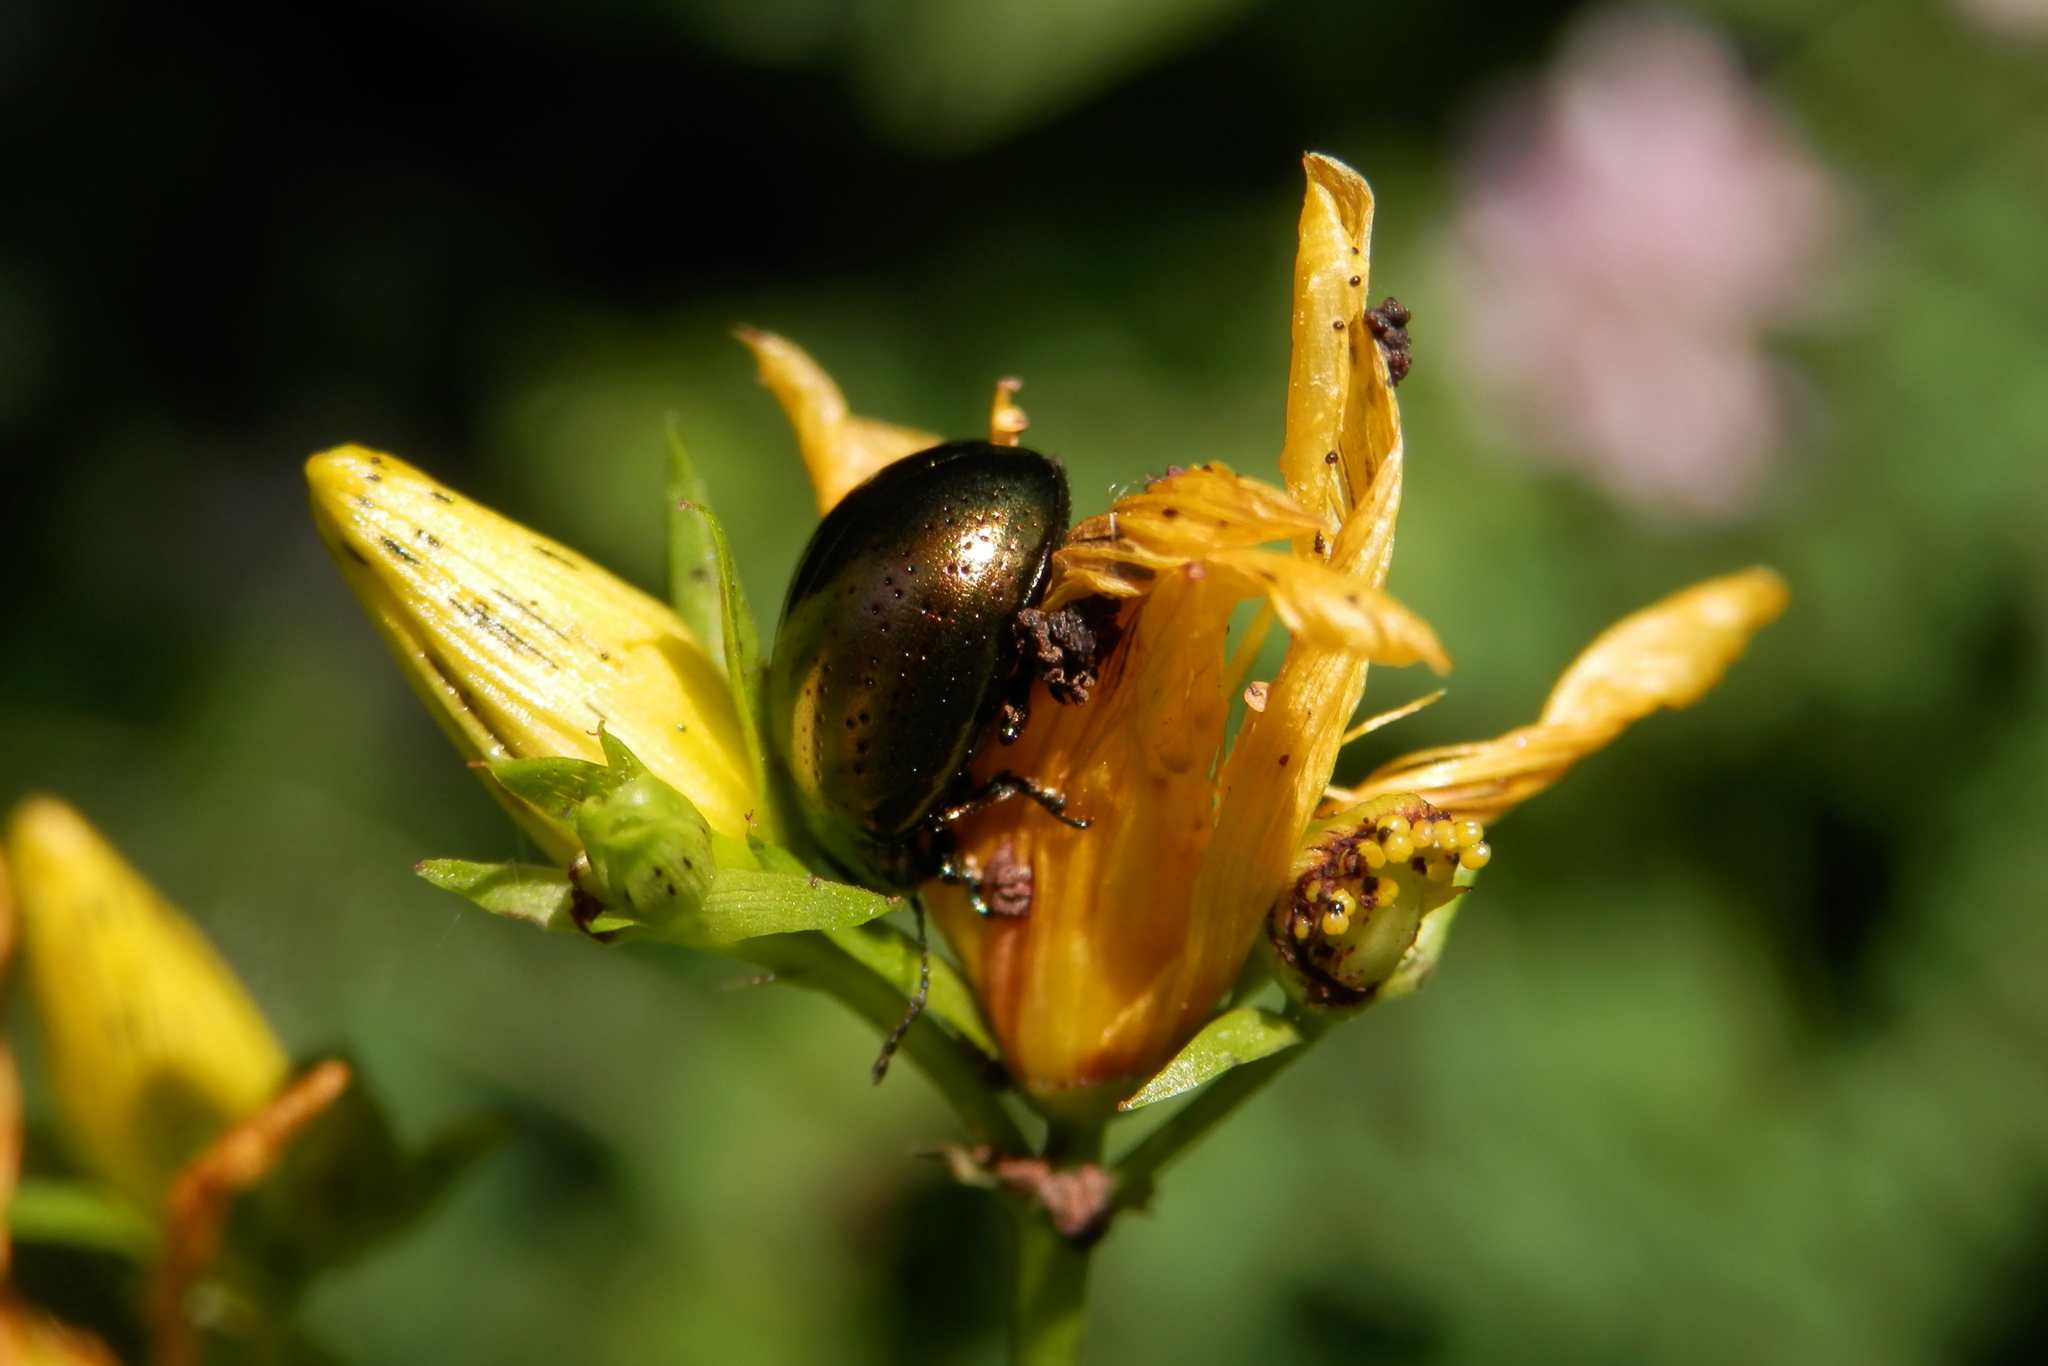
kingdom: Animalia
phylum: Arthropoda
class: Insecta
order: Coleoptera
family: Chrysomelidae
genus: Chrysolina
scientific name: Chrysolina hyperici
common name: St. johnswort beetle
